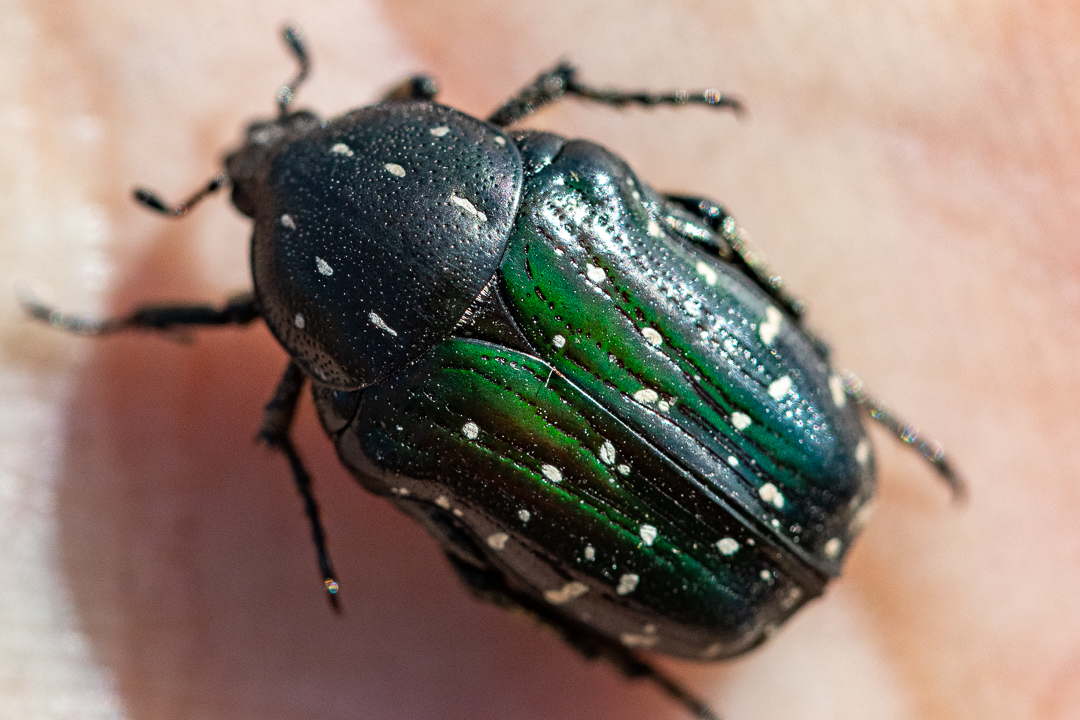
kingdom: Animalia
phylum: Arthropoda
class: Insecta
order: Coleoptera
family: Scarabaeidae
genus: Leucocelis
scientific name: Leucocelis adspersa
